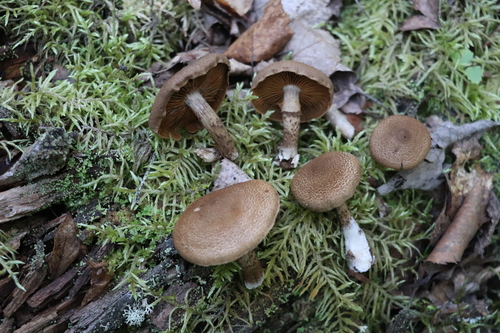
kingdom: Fungi
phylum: Basidiomycota
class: Agaricomycetes
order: Agaricales
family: Cortinariaceae
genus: Cortinarius
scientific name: Cortinarius pholideus
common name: Scaly webcap
